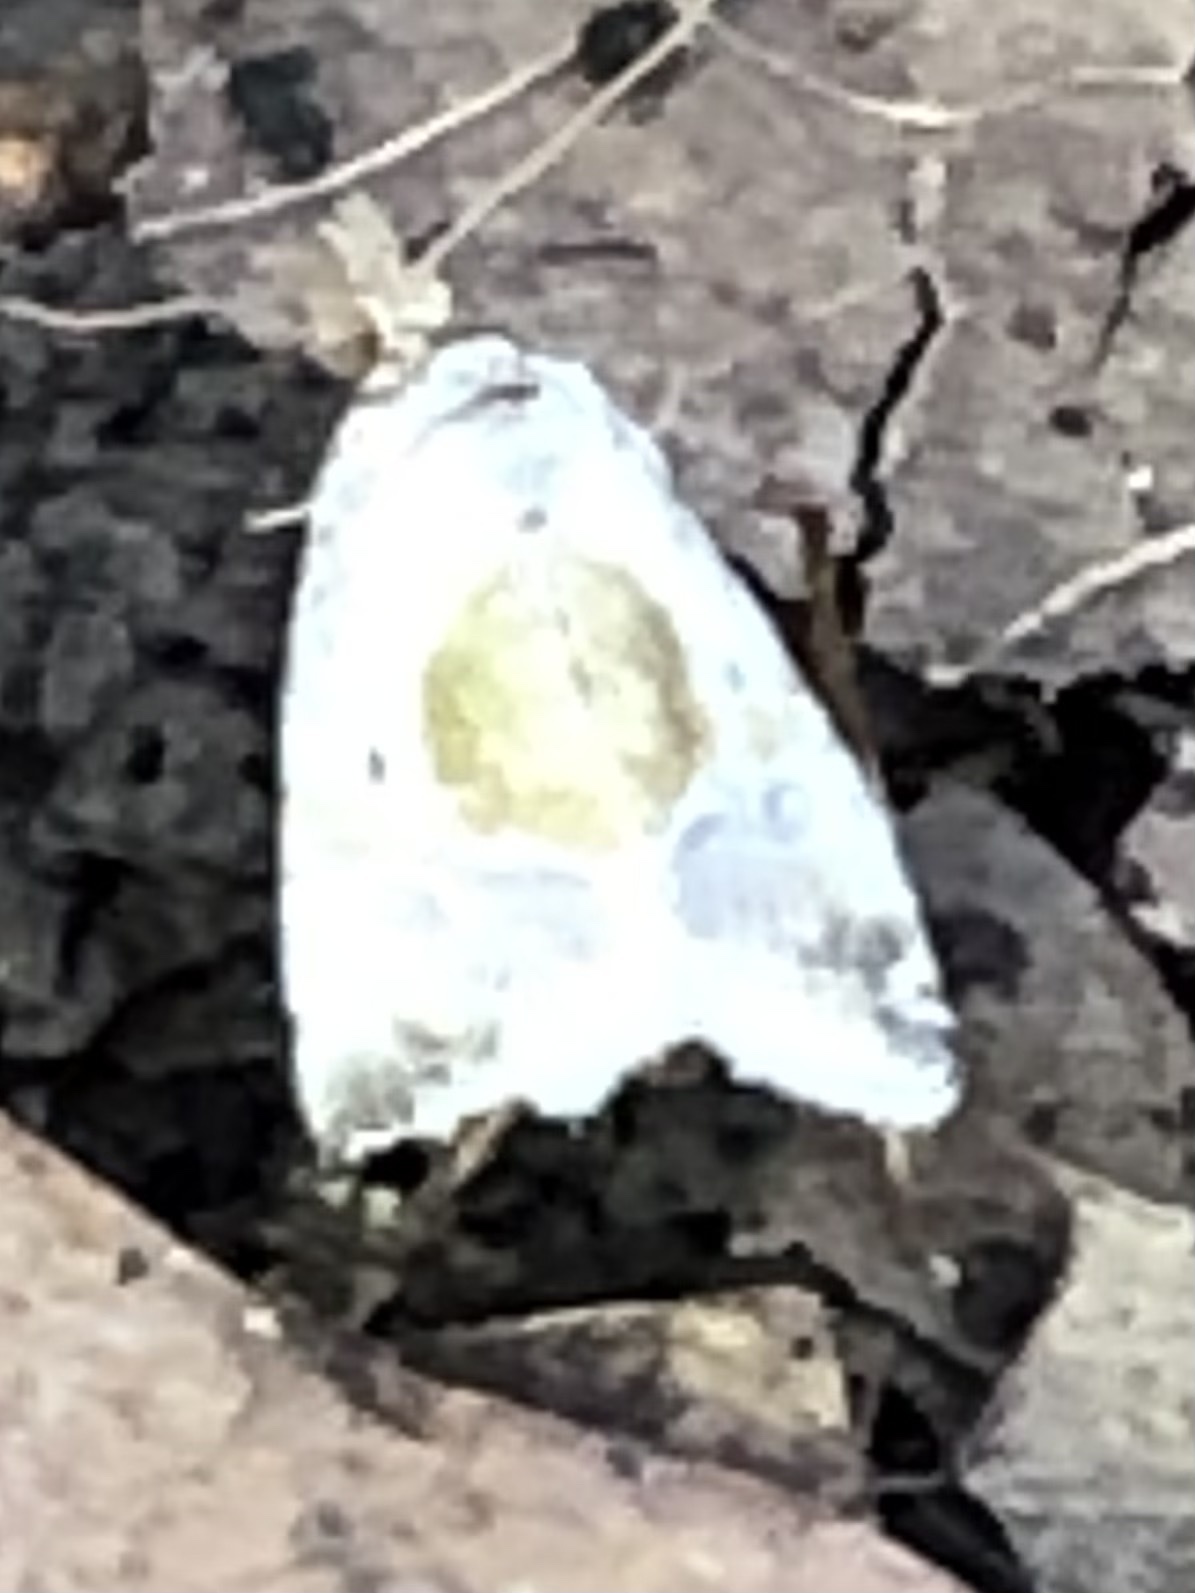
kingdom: Animalia
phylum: Arthropoda
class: Insecta
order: Lepidoptera
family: Noctuidae
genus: Maliattha
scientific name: Maliattha synochitis
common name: Black-dotted glyph
